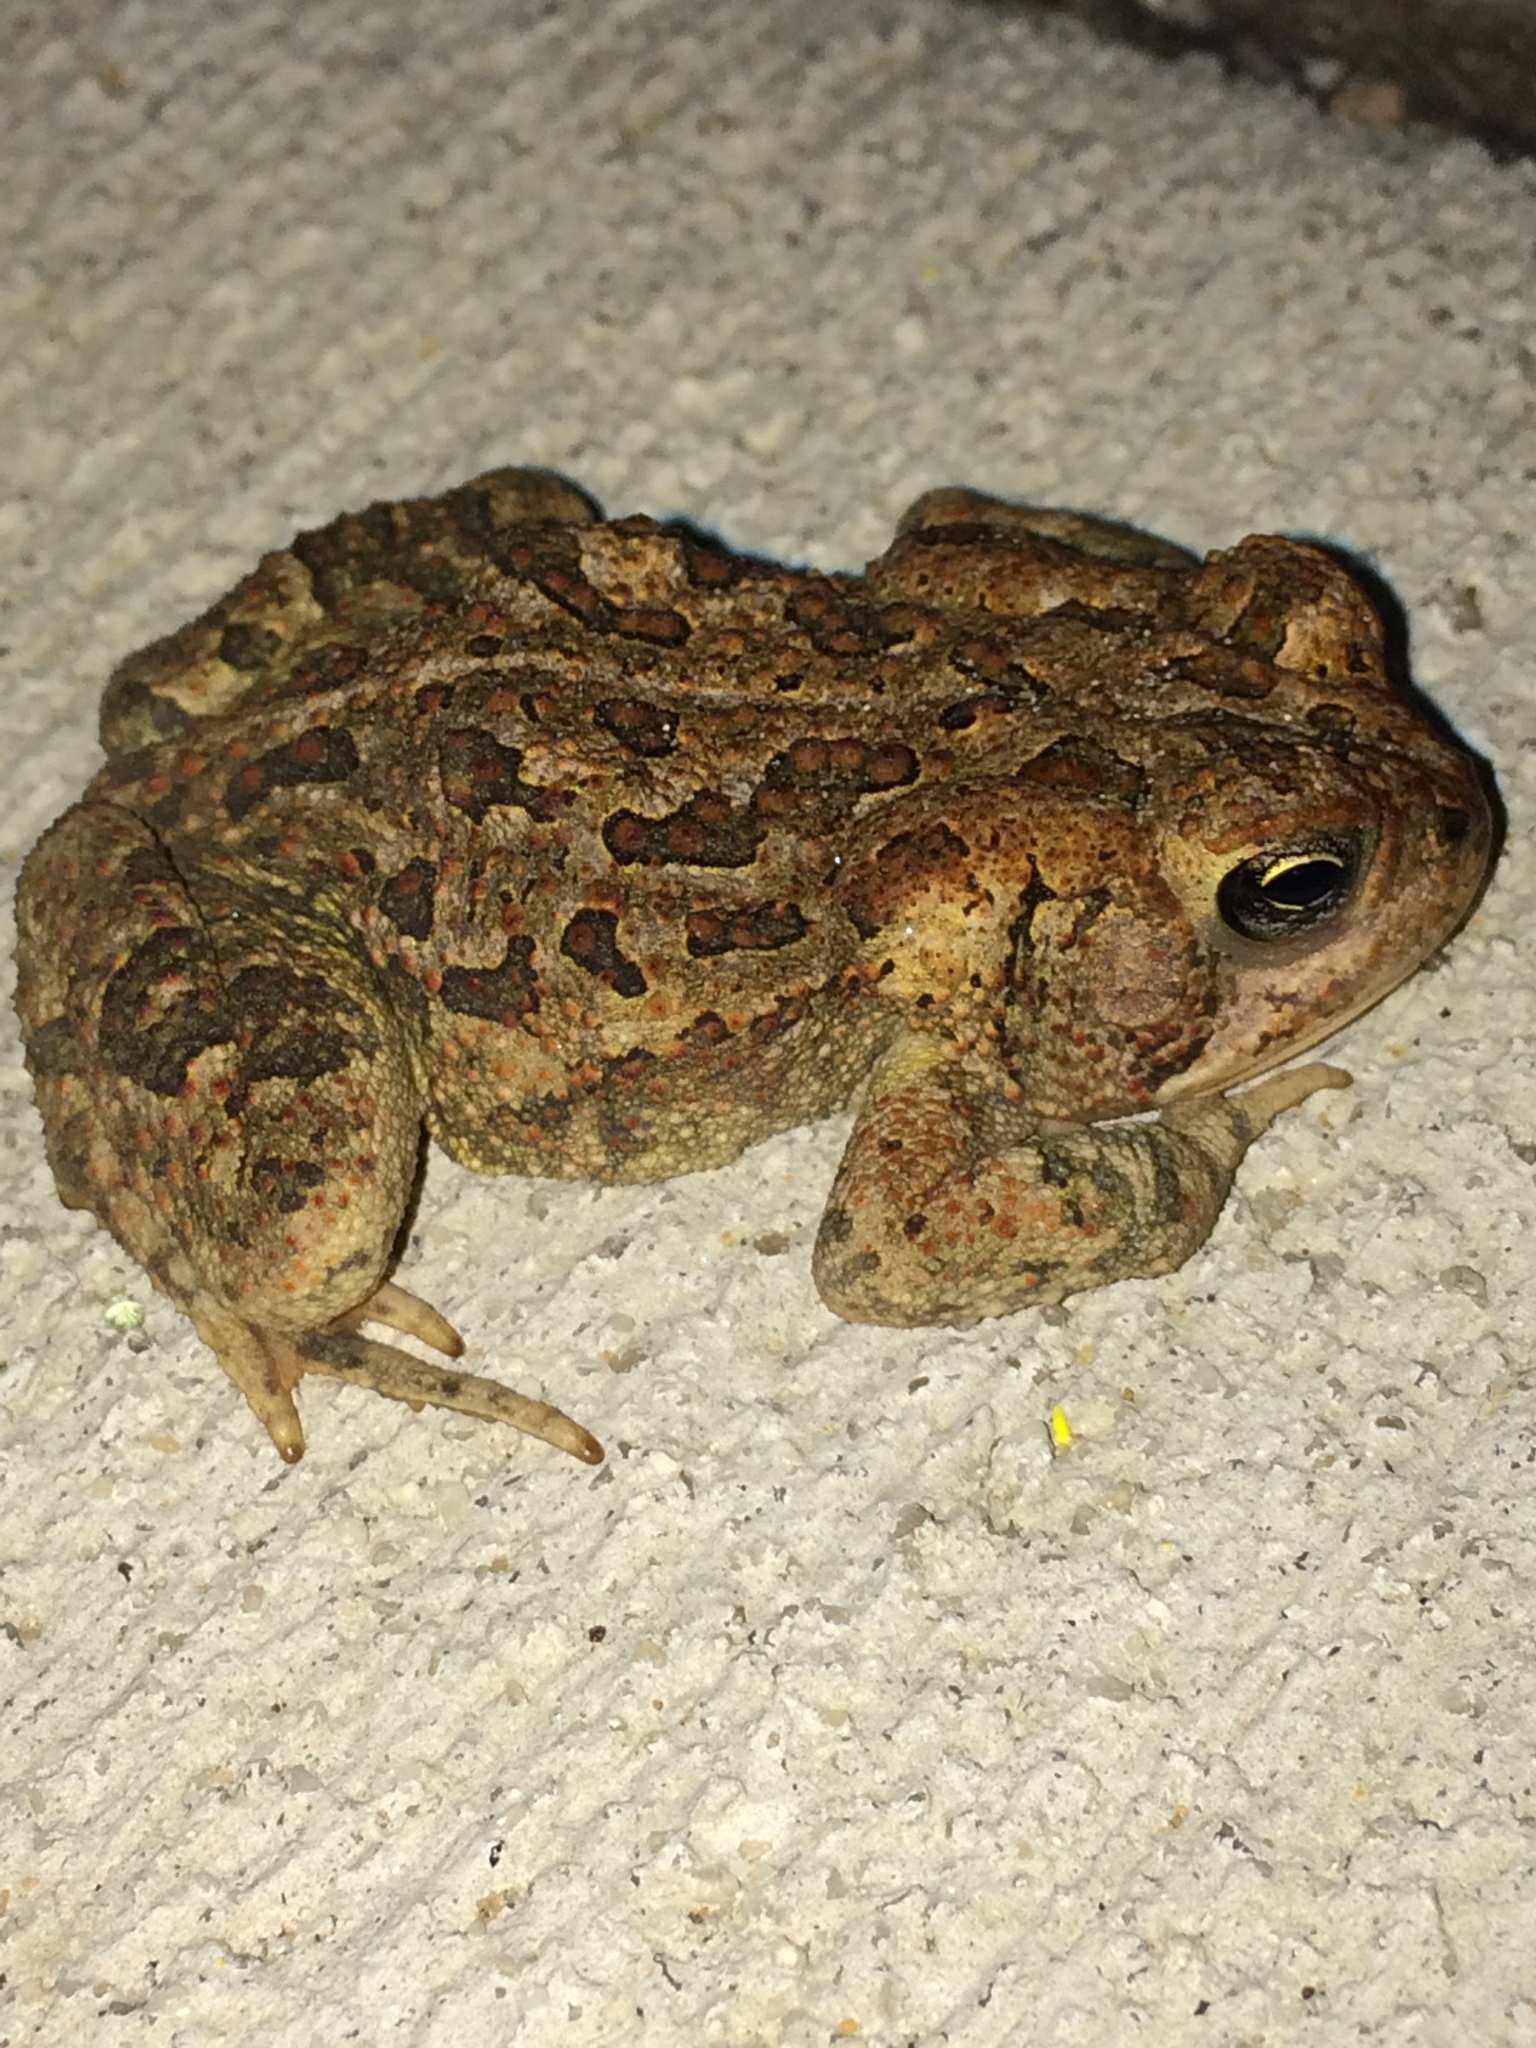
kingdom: Animalia
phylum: Chordata
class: Amphibia
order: Anura
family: Bufonidae
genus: Anaxyrus
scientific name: Anaxyrus fowleri
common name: Fowler's toad
